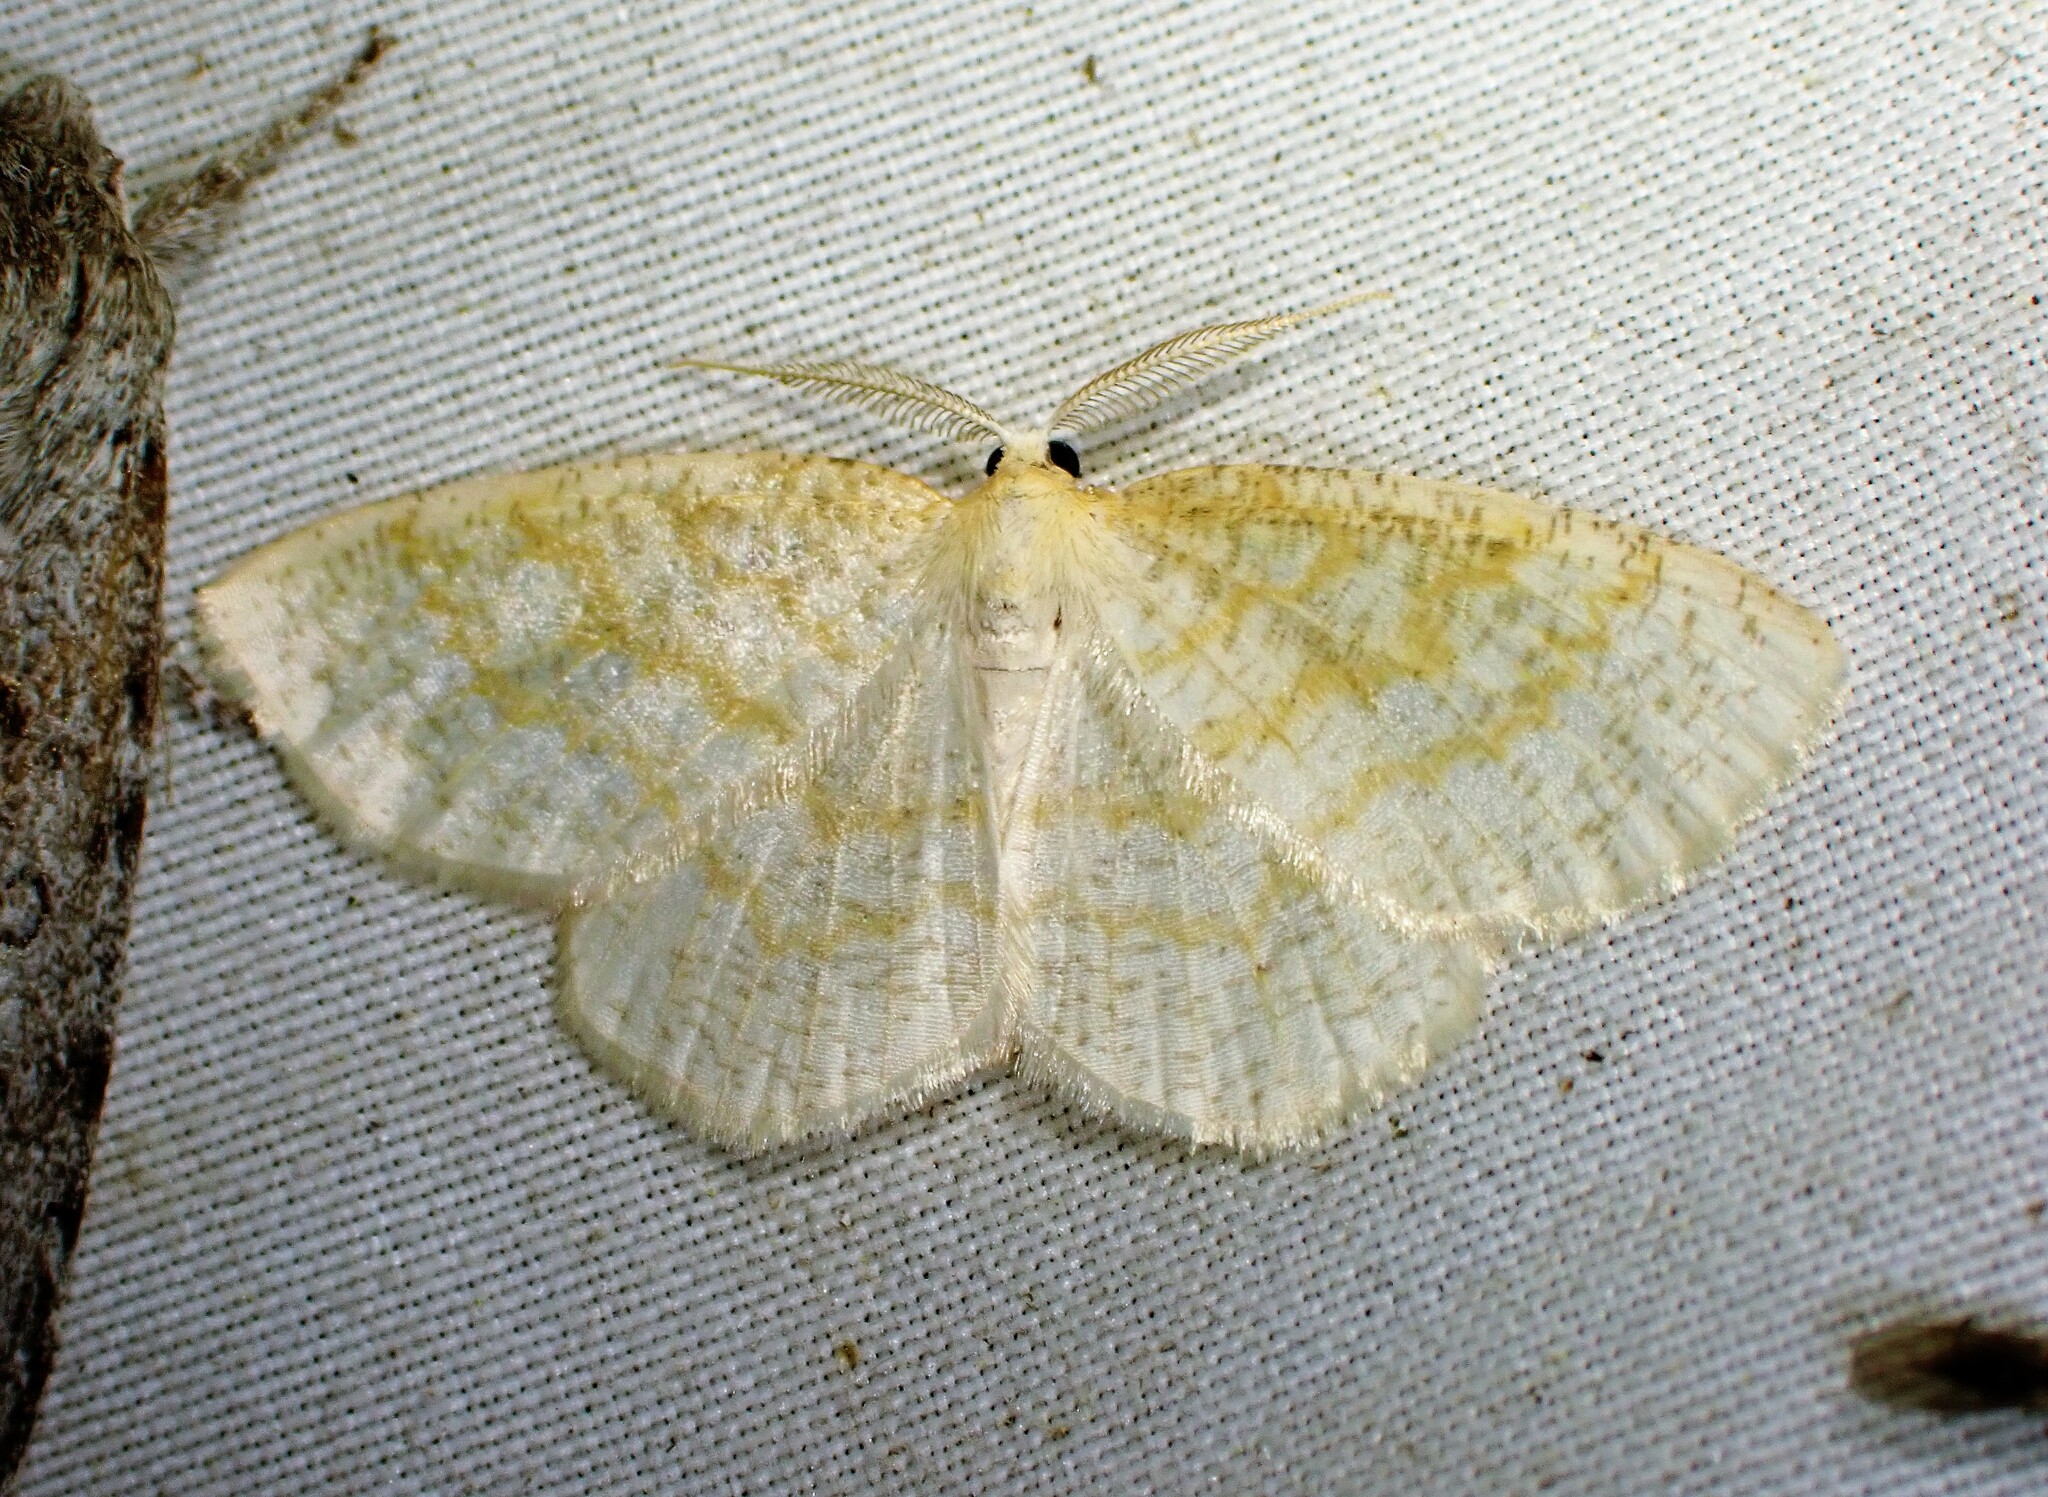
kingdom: Animalia
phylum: Arthropoda
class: Insecta
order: Lepidoptera
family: Geometridae
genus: Cabera
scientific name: Cabera erythemaria
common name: Yellow-dusted cream moth
